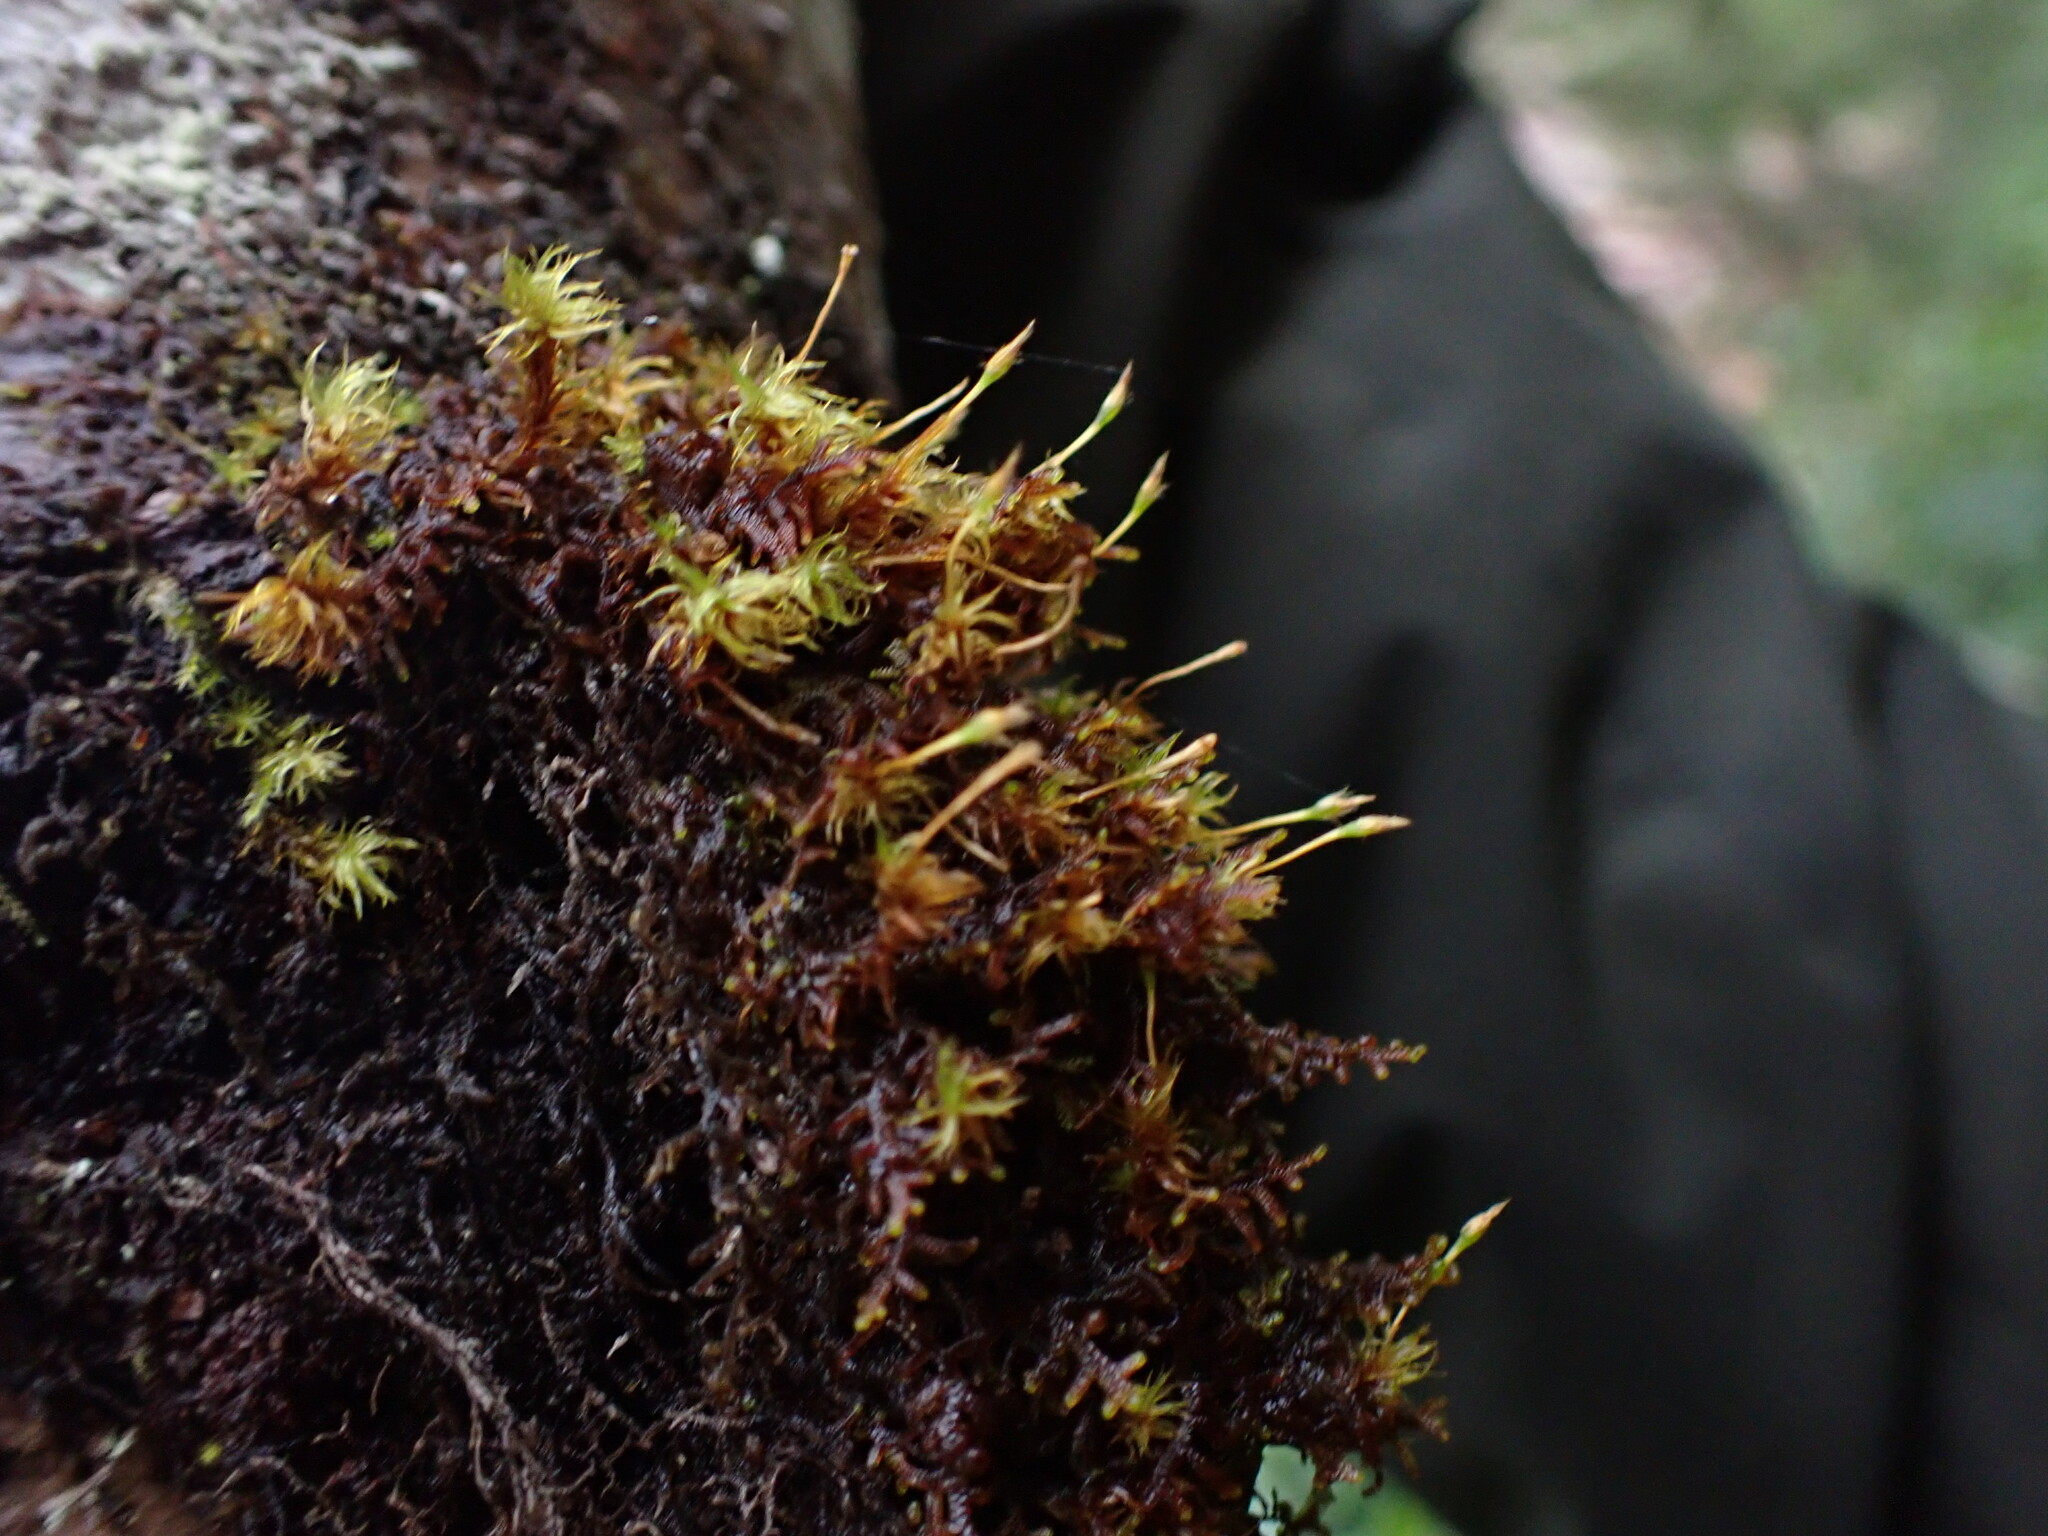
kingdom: Plantae
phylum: Bryophyta
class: Bryopsida
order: Orthotrichales
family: Orthotrichaceae
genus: Ulota
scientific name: Ulota obtusiuscula
